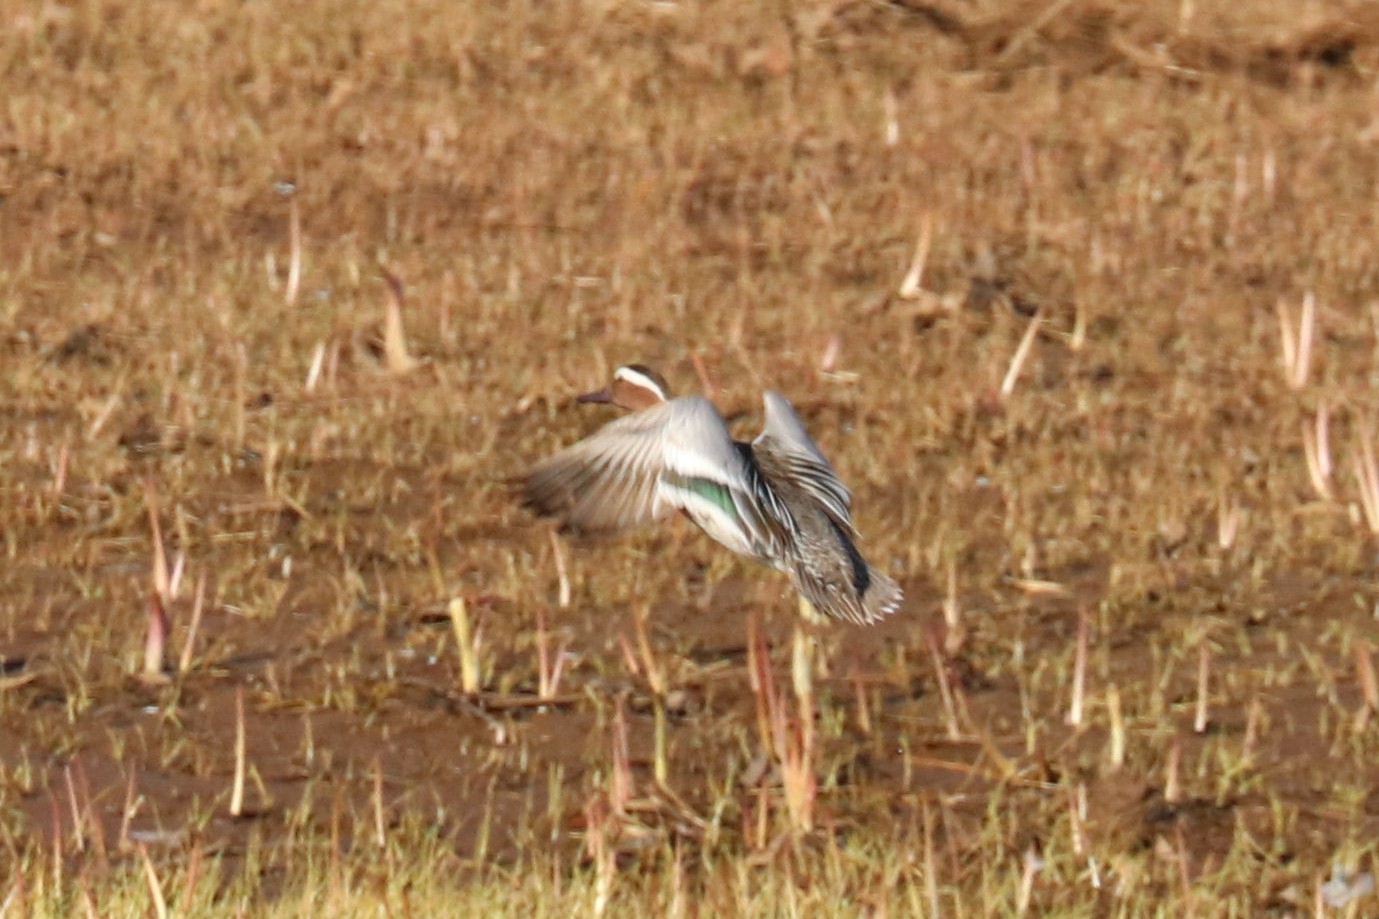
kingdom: Animalia
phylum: Chordata
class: Aves
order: Anseriformes
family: Anatidae
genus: Spatula
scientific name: Spatula querquedula
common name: Garganey
